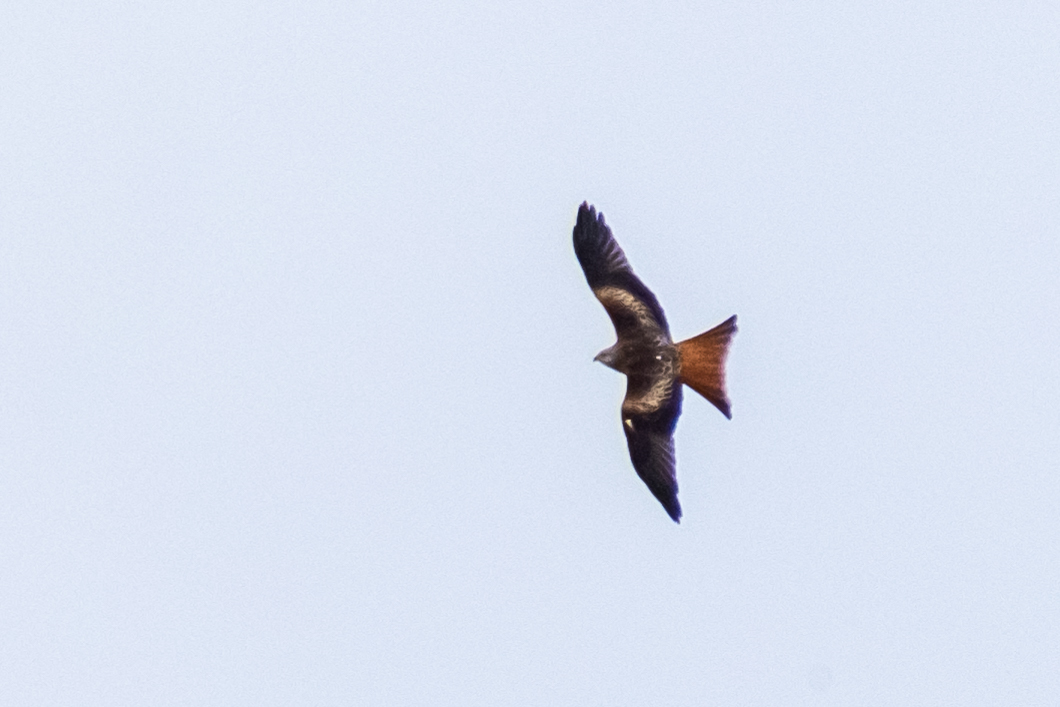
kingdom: Animalia
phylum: Chordata
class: Aves
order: Accipitriformes
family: Accipitridae
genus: Milvus
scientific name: Milvus milvus
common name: Red kite
